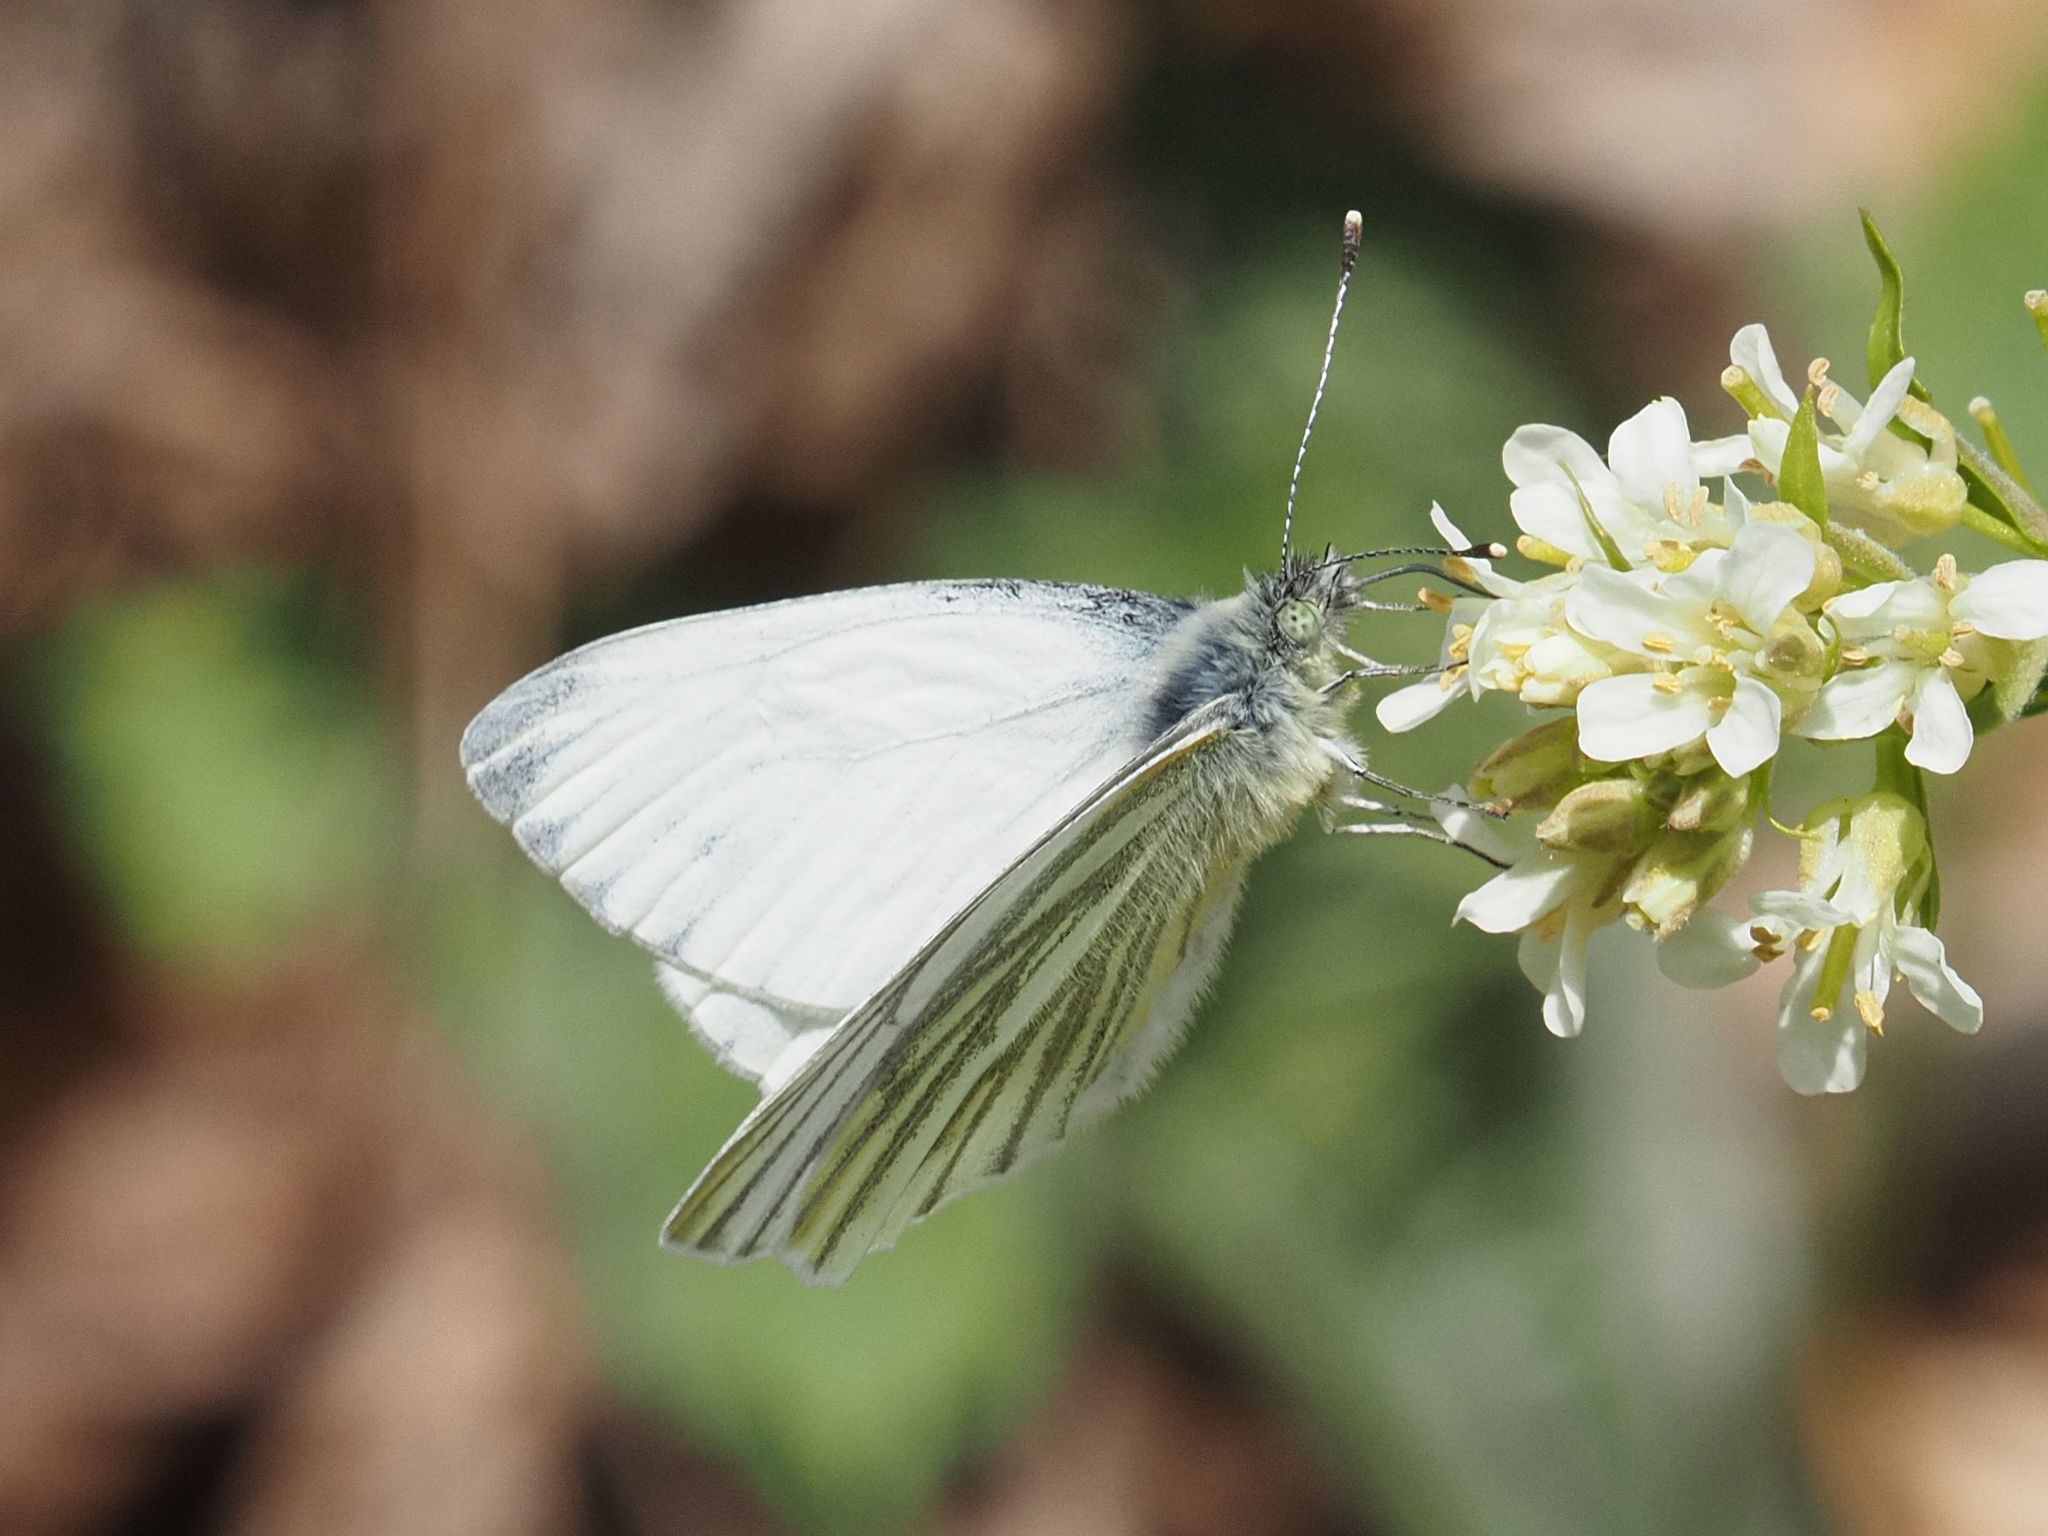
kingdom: Animalia
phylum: Arthropoda
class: Insecta
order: Lepidoptera
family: Pieridae
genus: Pieris
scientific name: Pieris napi
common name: Green-veined white
